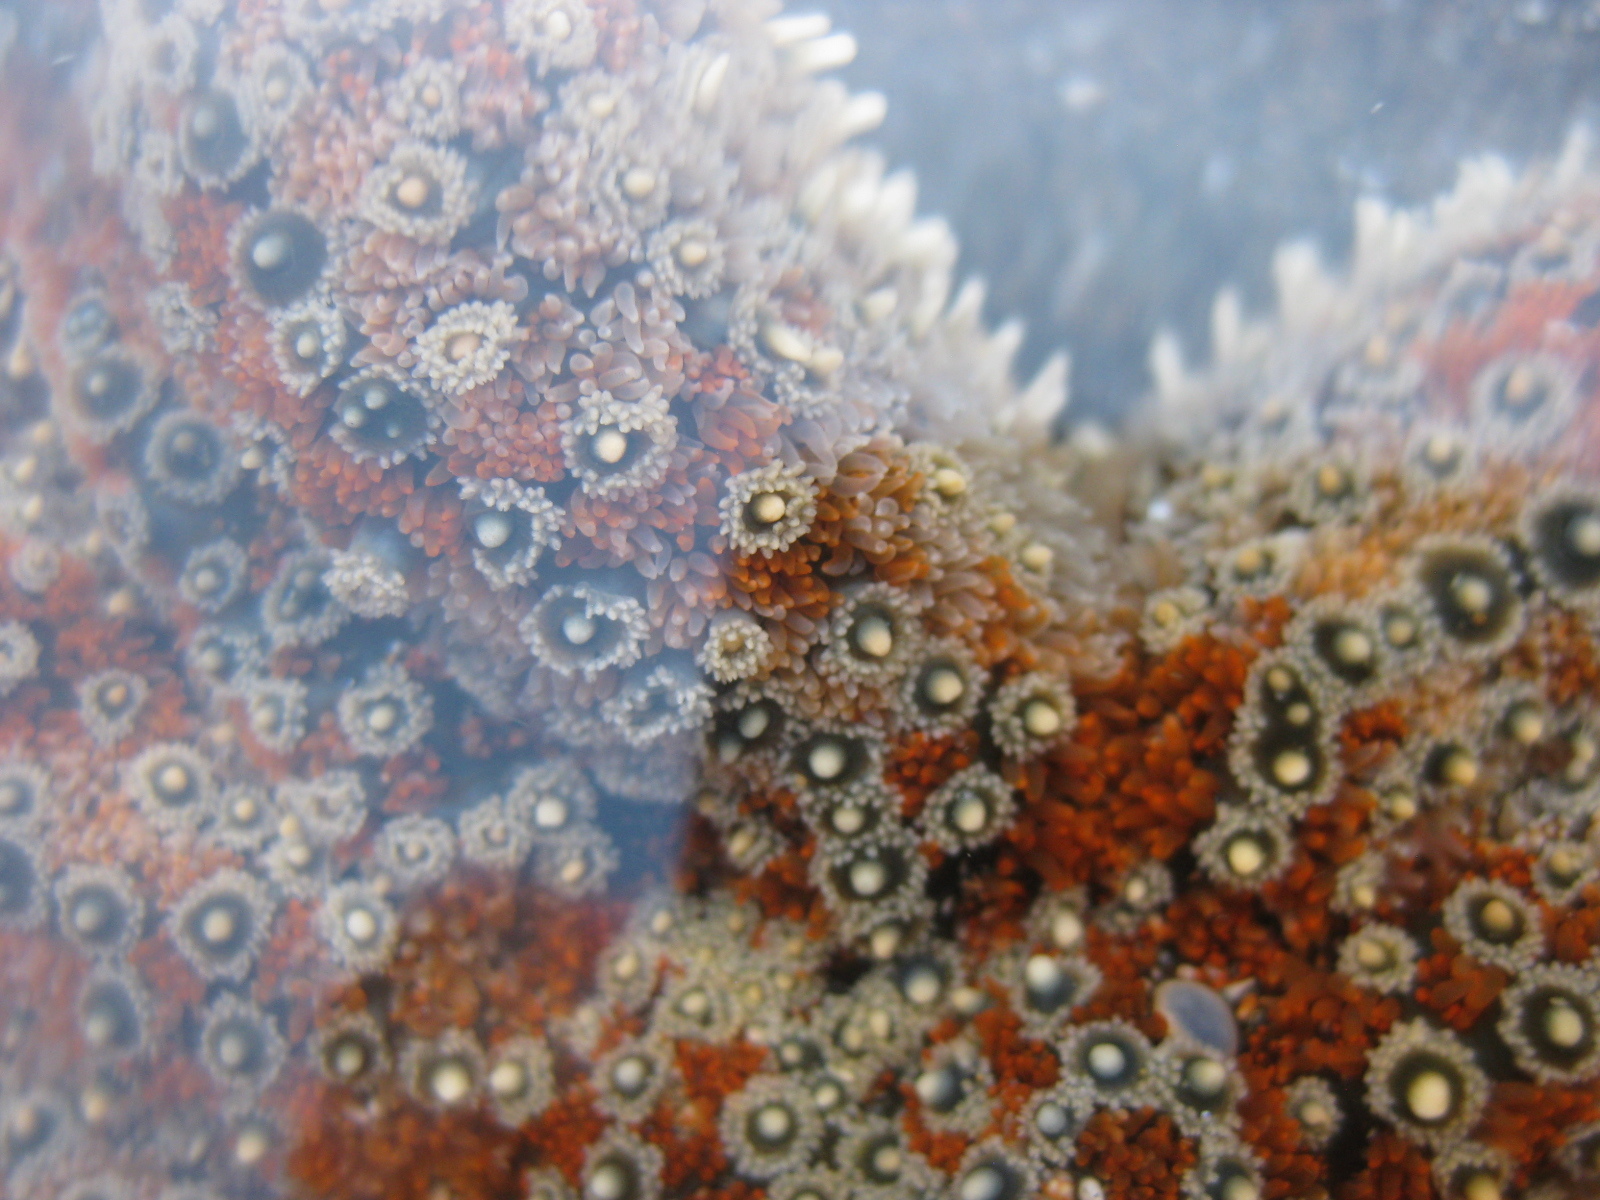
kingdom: Animalia
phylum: Echinodermata
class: Asteroidea
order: Forcipulatida
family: Asteriidae
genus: Coscinasterias
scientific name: Coscinasterias muricata
